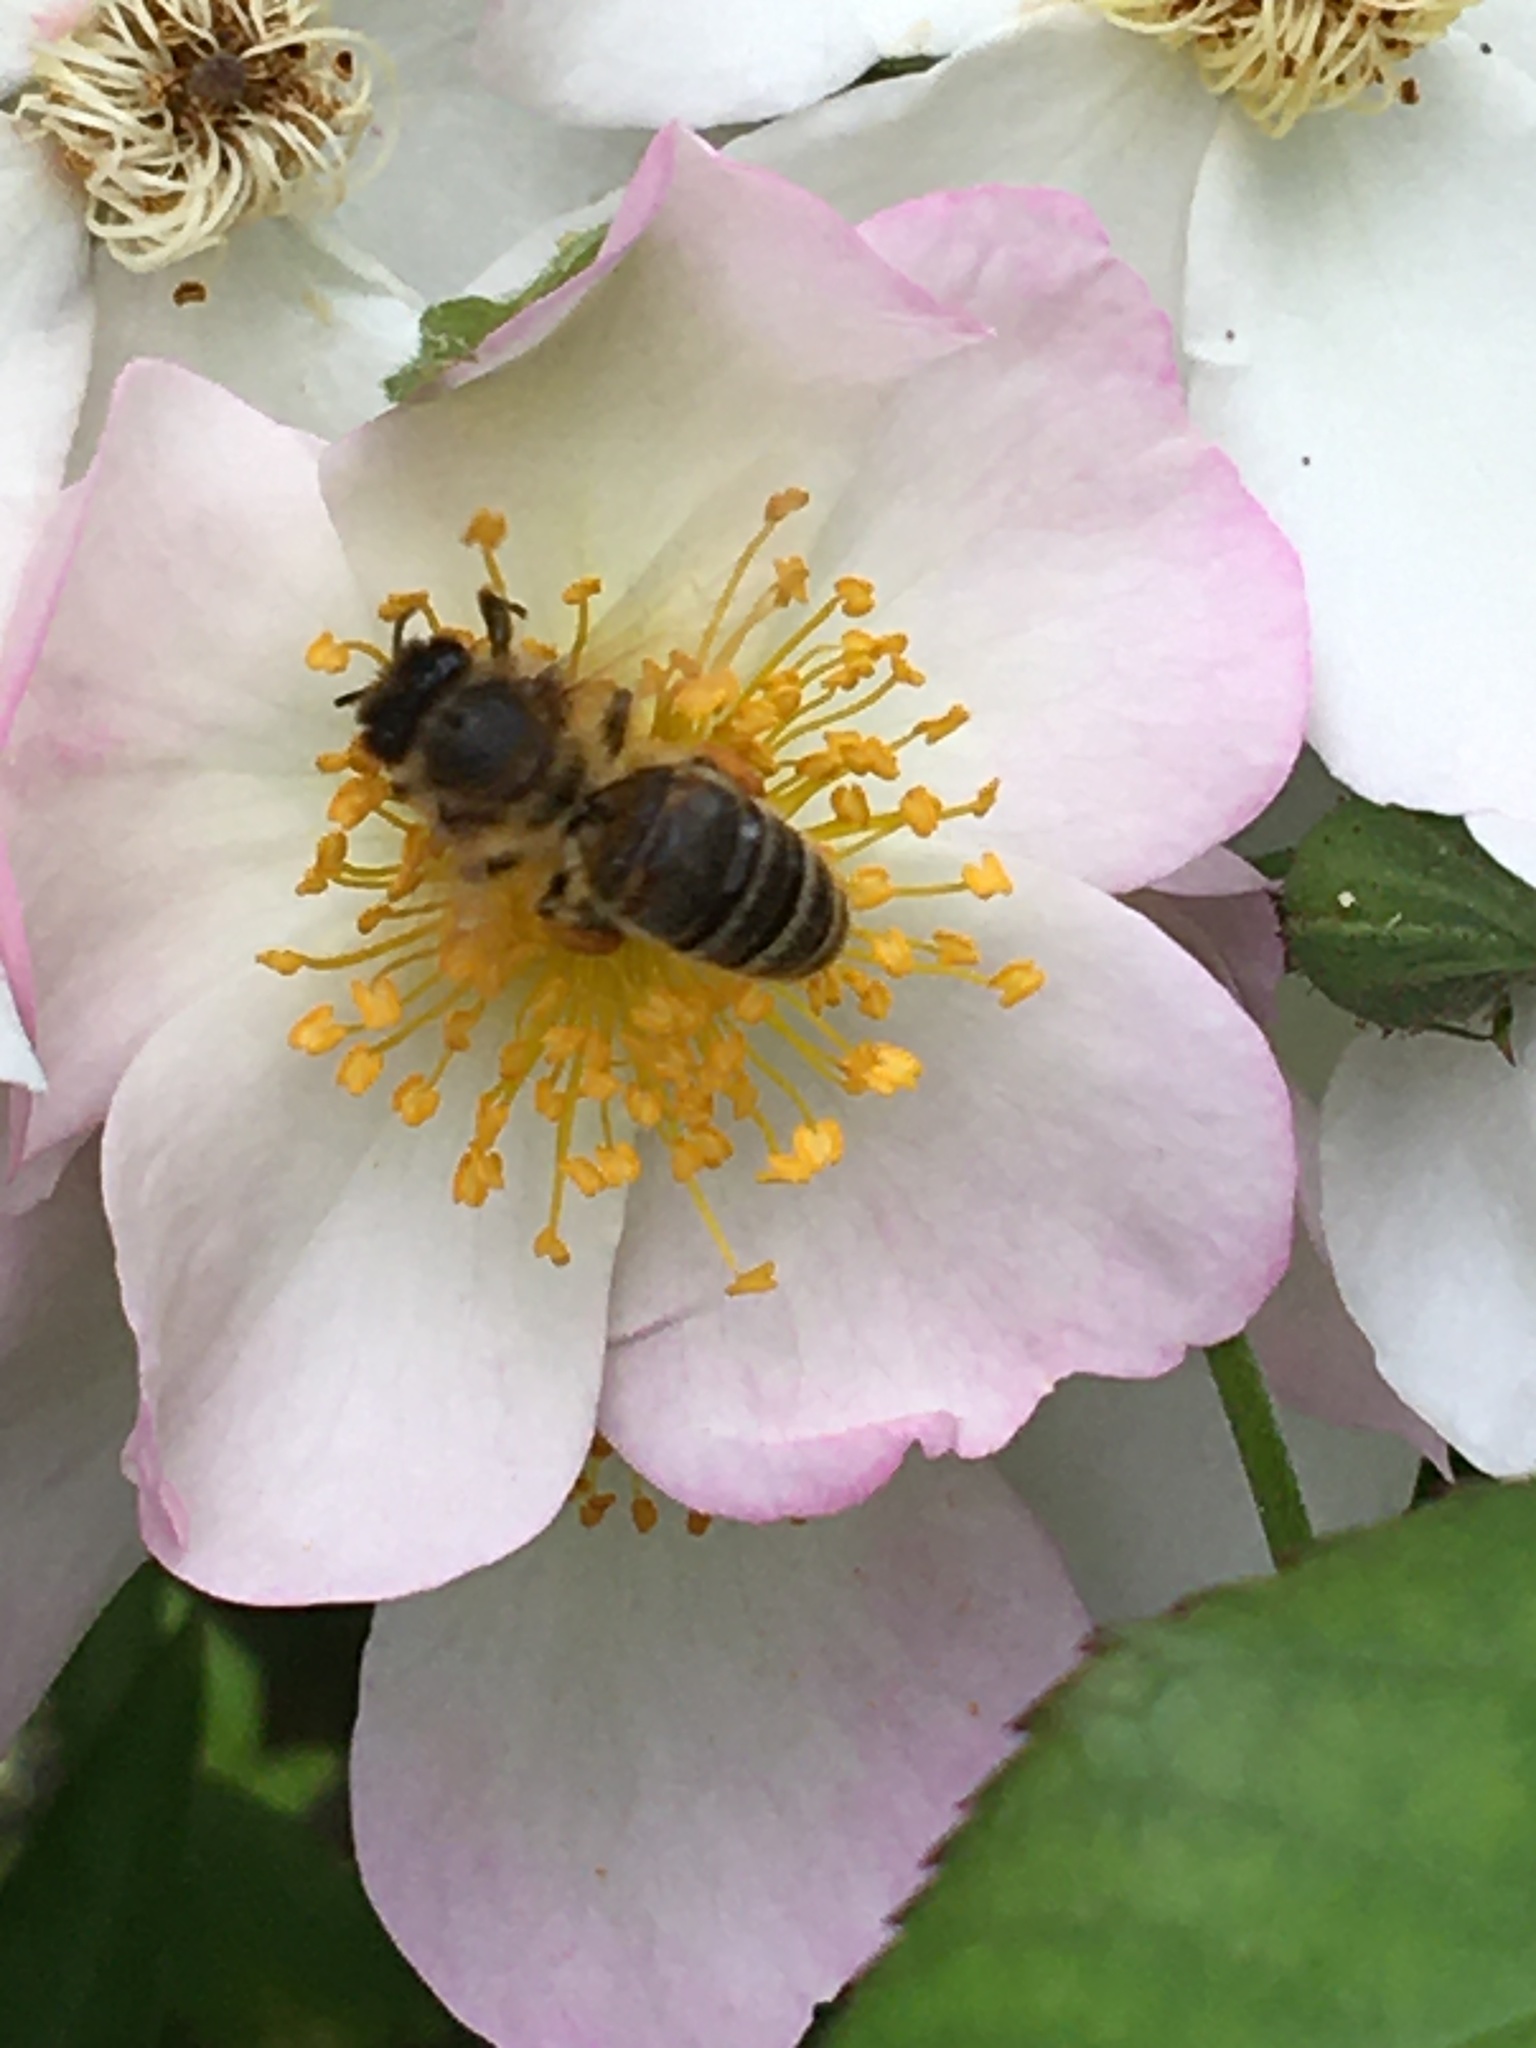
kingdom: Animalia
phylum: Arthropoda
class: Insecta
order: Hymenoptera
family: Apidae
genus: Apis
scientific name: Apis mellifera
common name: Honey bee
